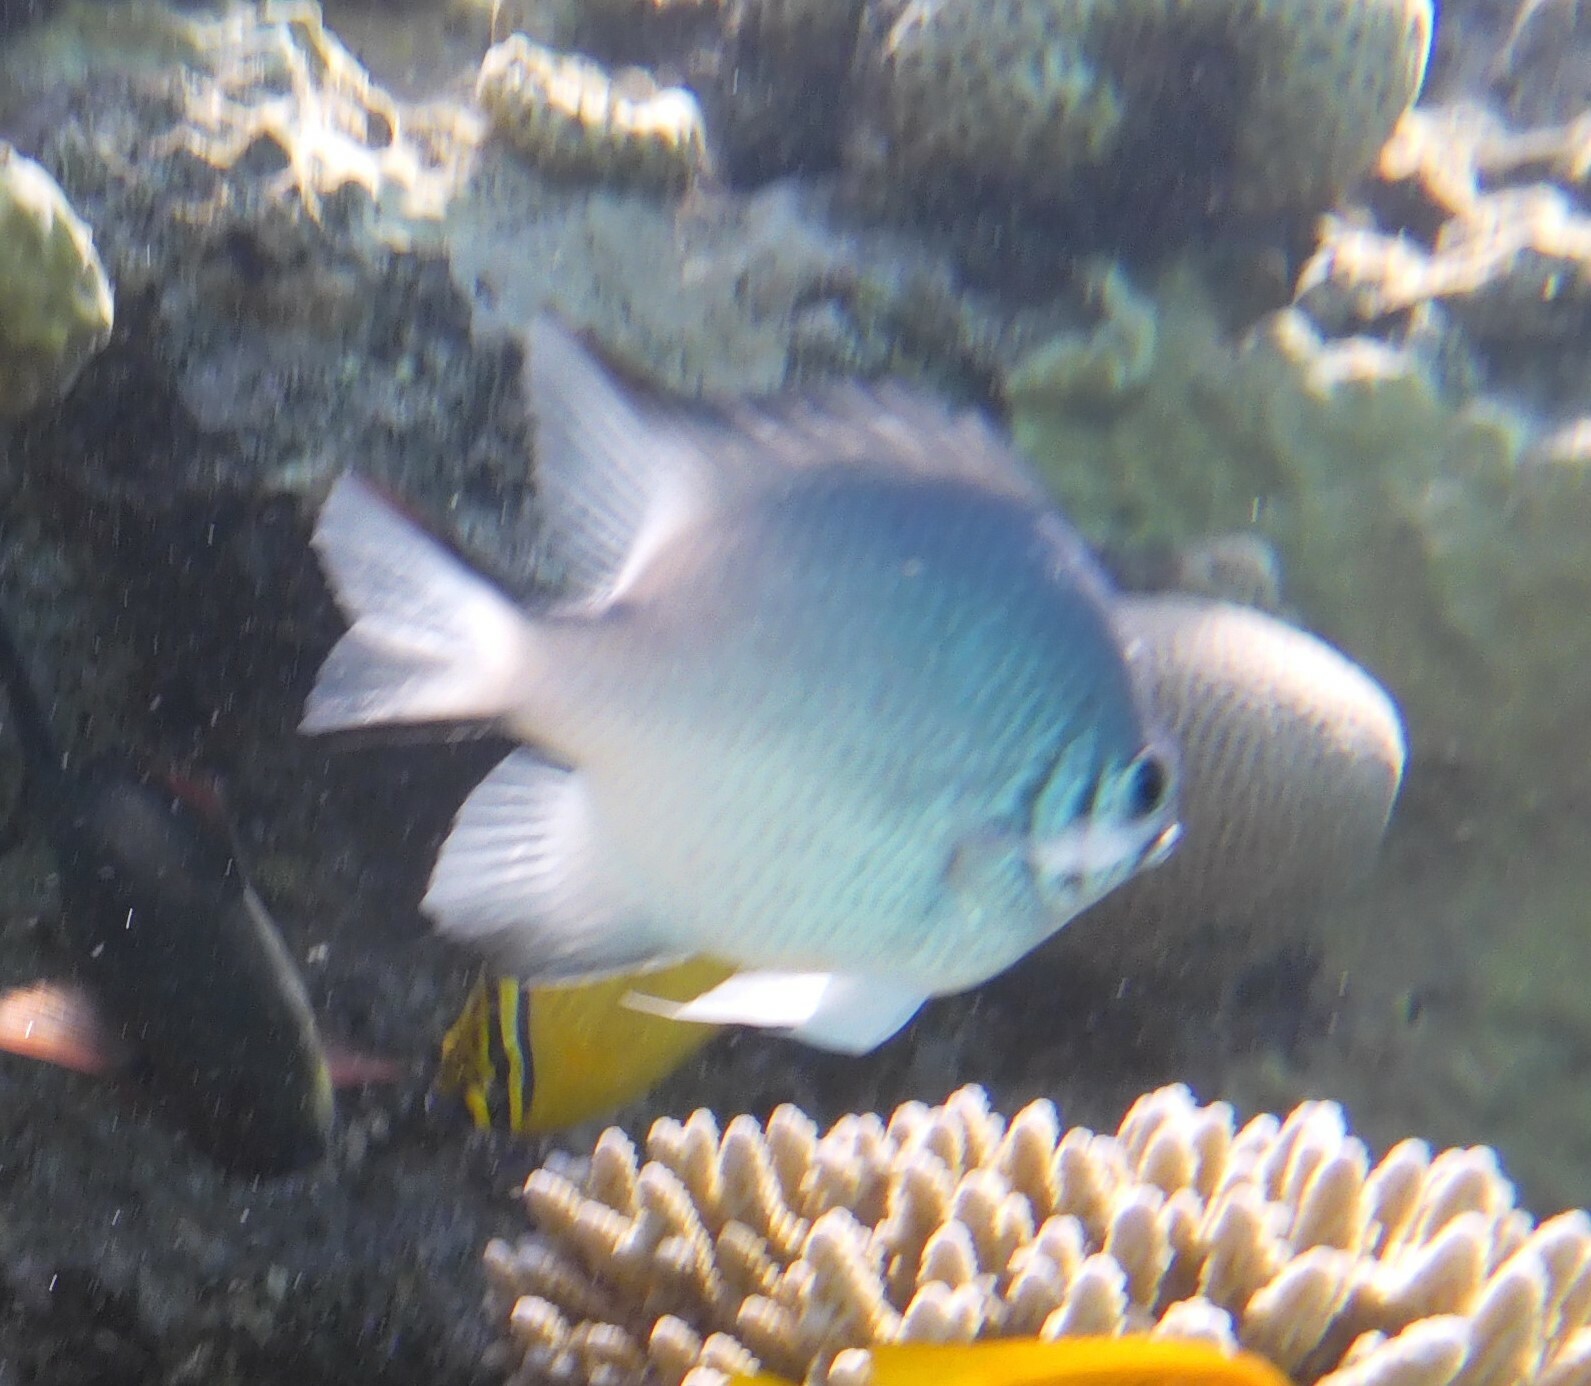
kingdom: Animalia
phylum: Chordata
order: Perciformes
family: Pomacentridae
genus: Amblyglyphidodon
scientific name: Amblyglyphidodon indicus
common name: Maldives damselfish
